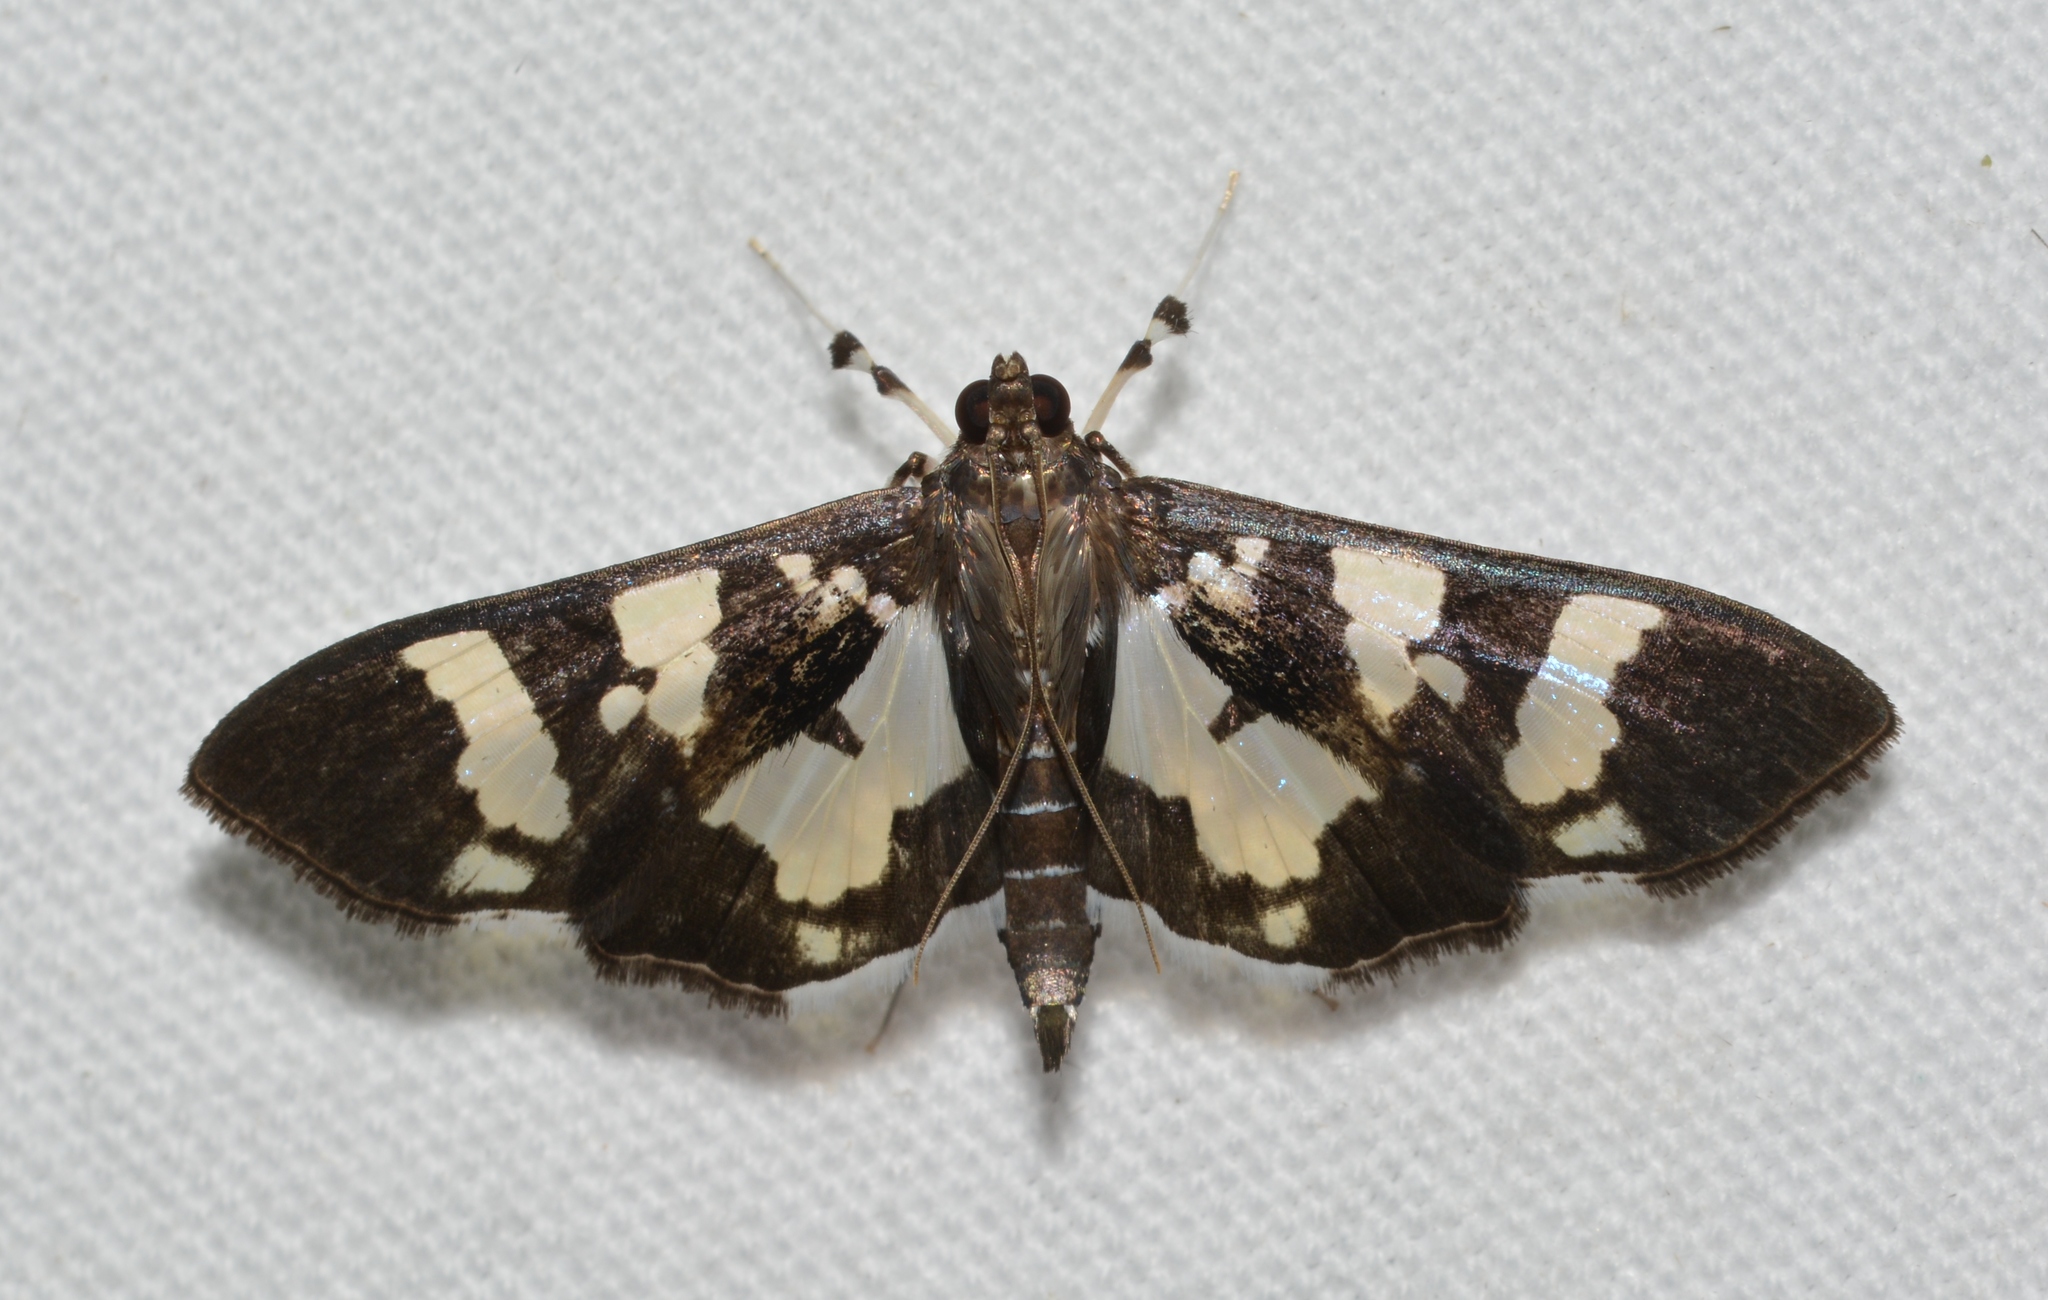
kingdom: Animalia
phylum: Arthropoda
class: Insecta
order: Lepidoptera
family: Crambidae
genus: Desmia
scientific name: Desmia bajulalis
